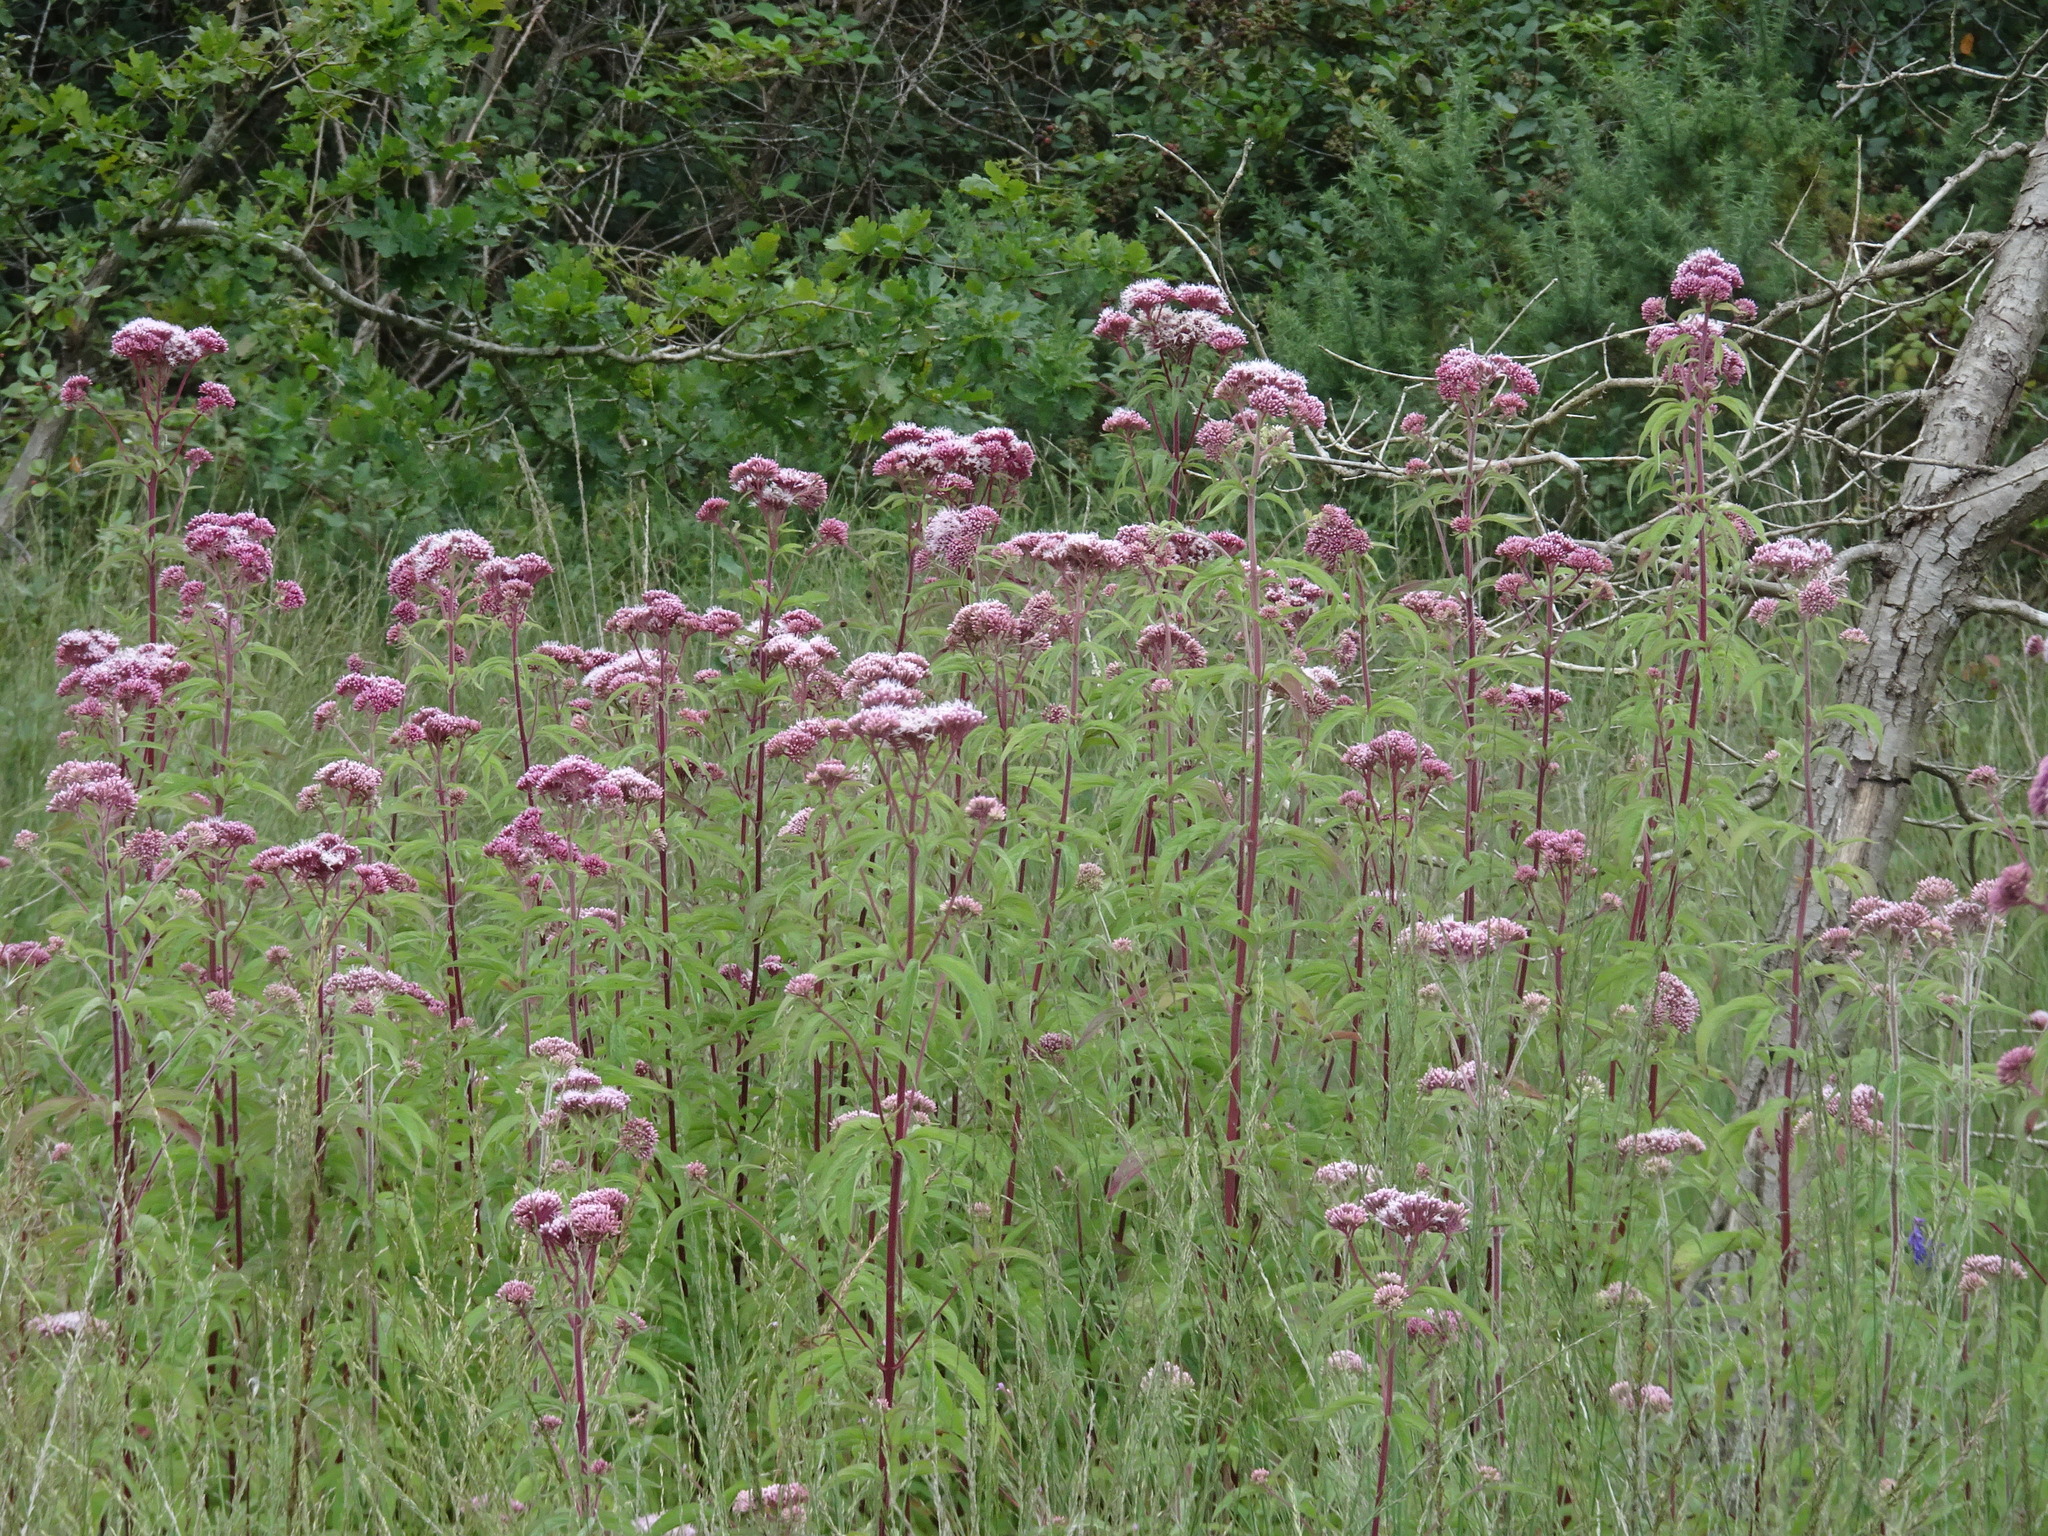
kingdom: Plantae
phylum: Tracheophyta
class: Magnoliopsida
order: Asterales
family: Asteraceae
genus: Eupatorium
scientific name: Eupatorium cannabinum
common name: Hemp-agrimony
